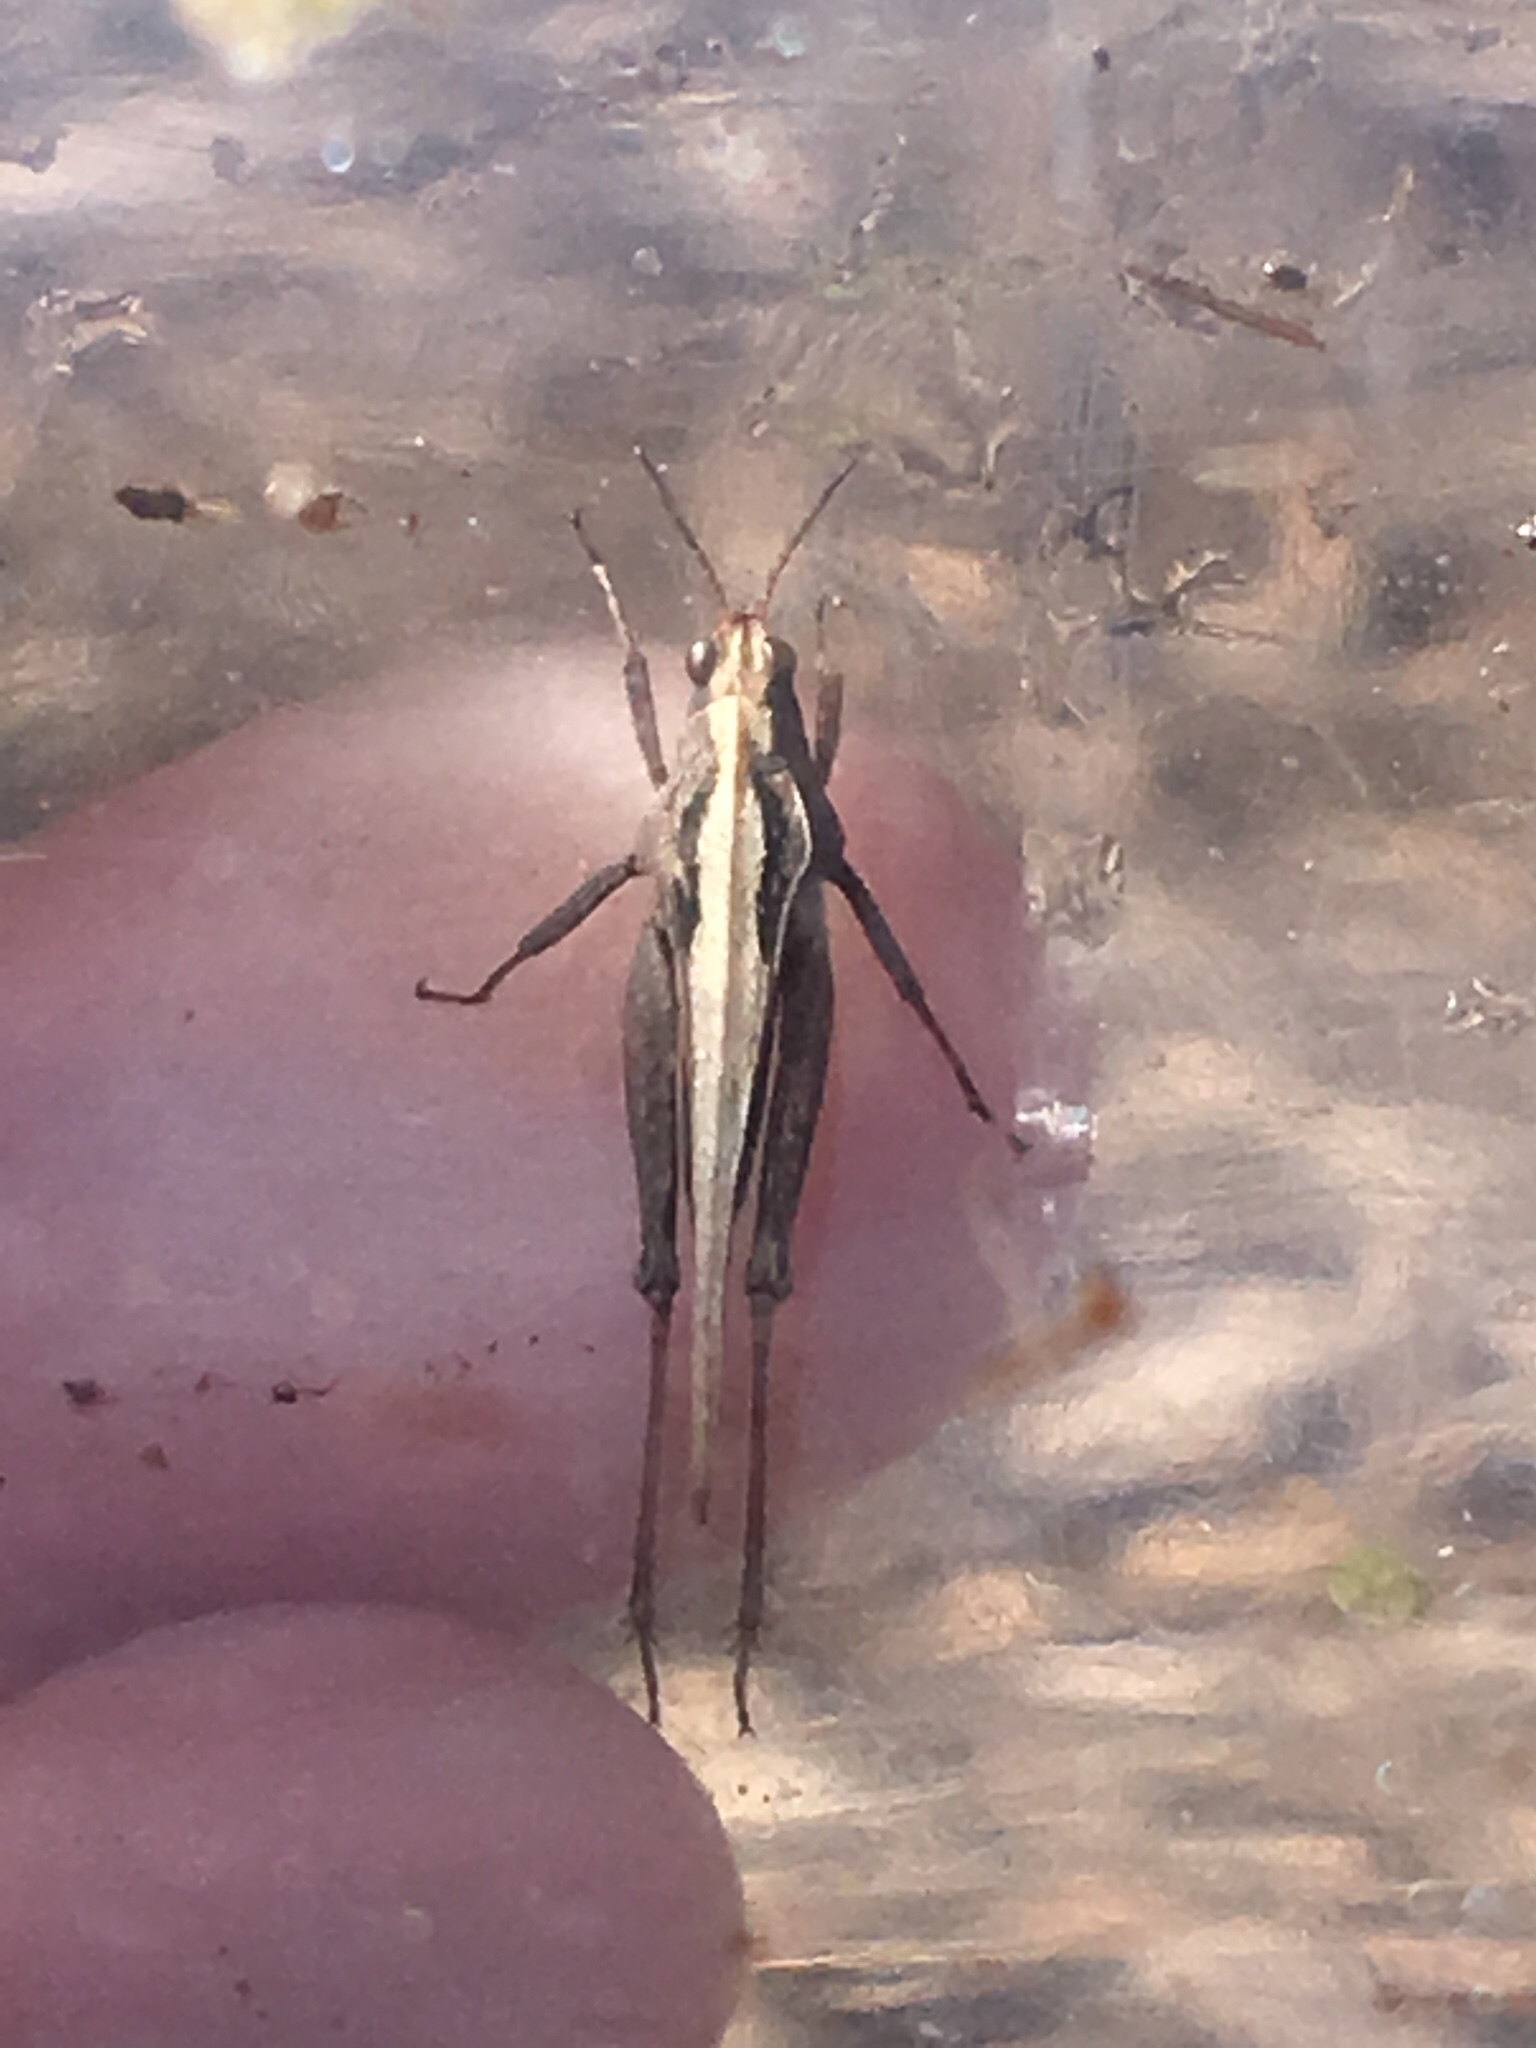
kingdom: Animalia
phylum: Arthropoda
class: Insecta
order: Orthoptera
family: Tetrigidae
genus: Tetrix
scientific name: Tetrix subulata
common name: Slender ground-hopper
